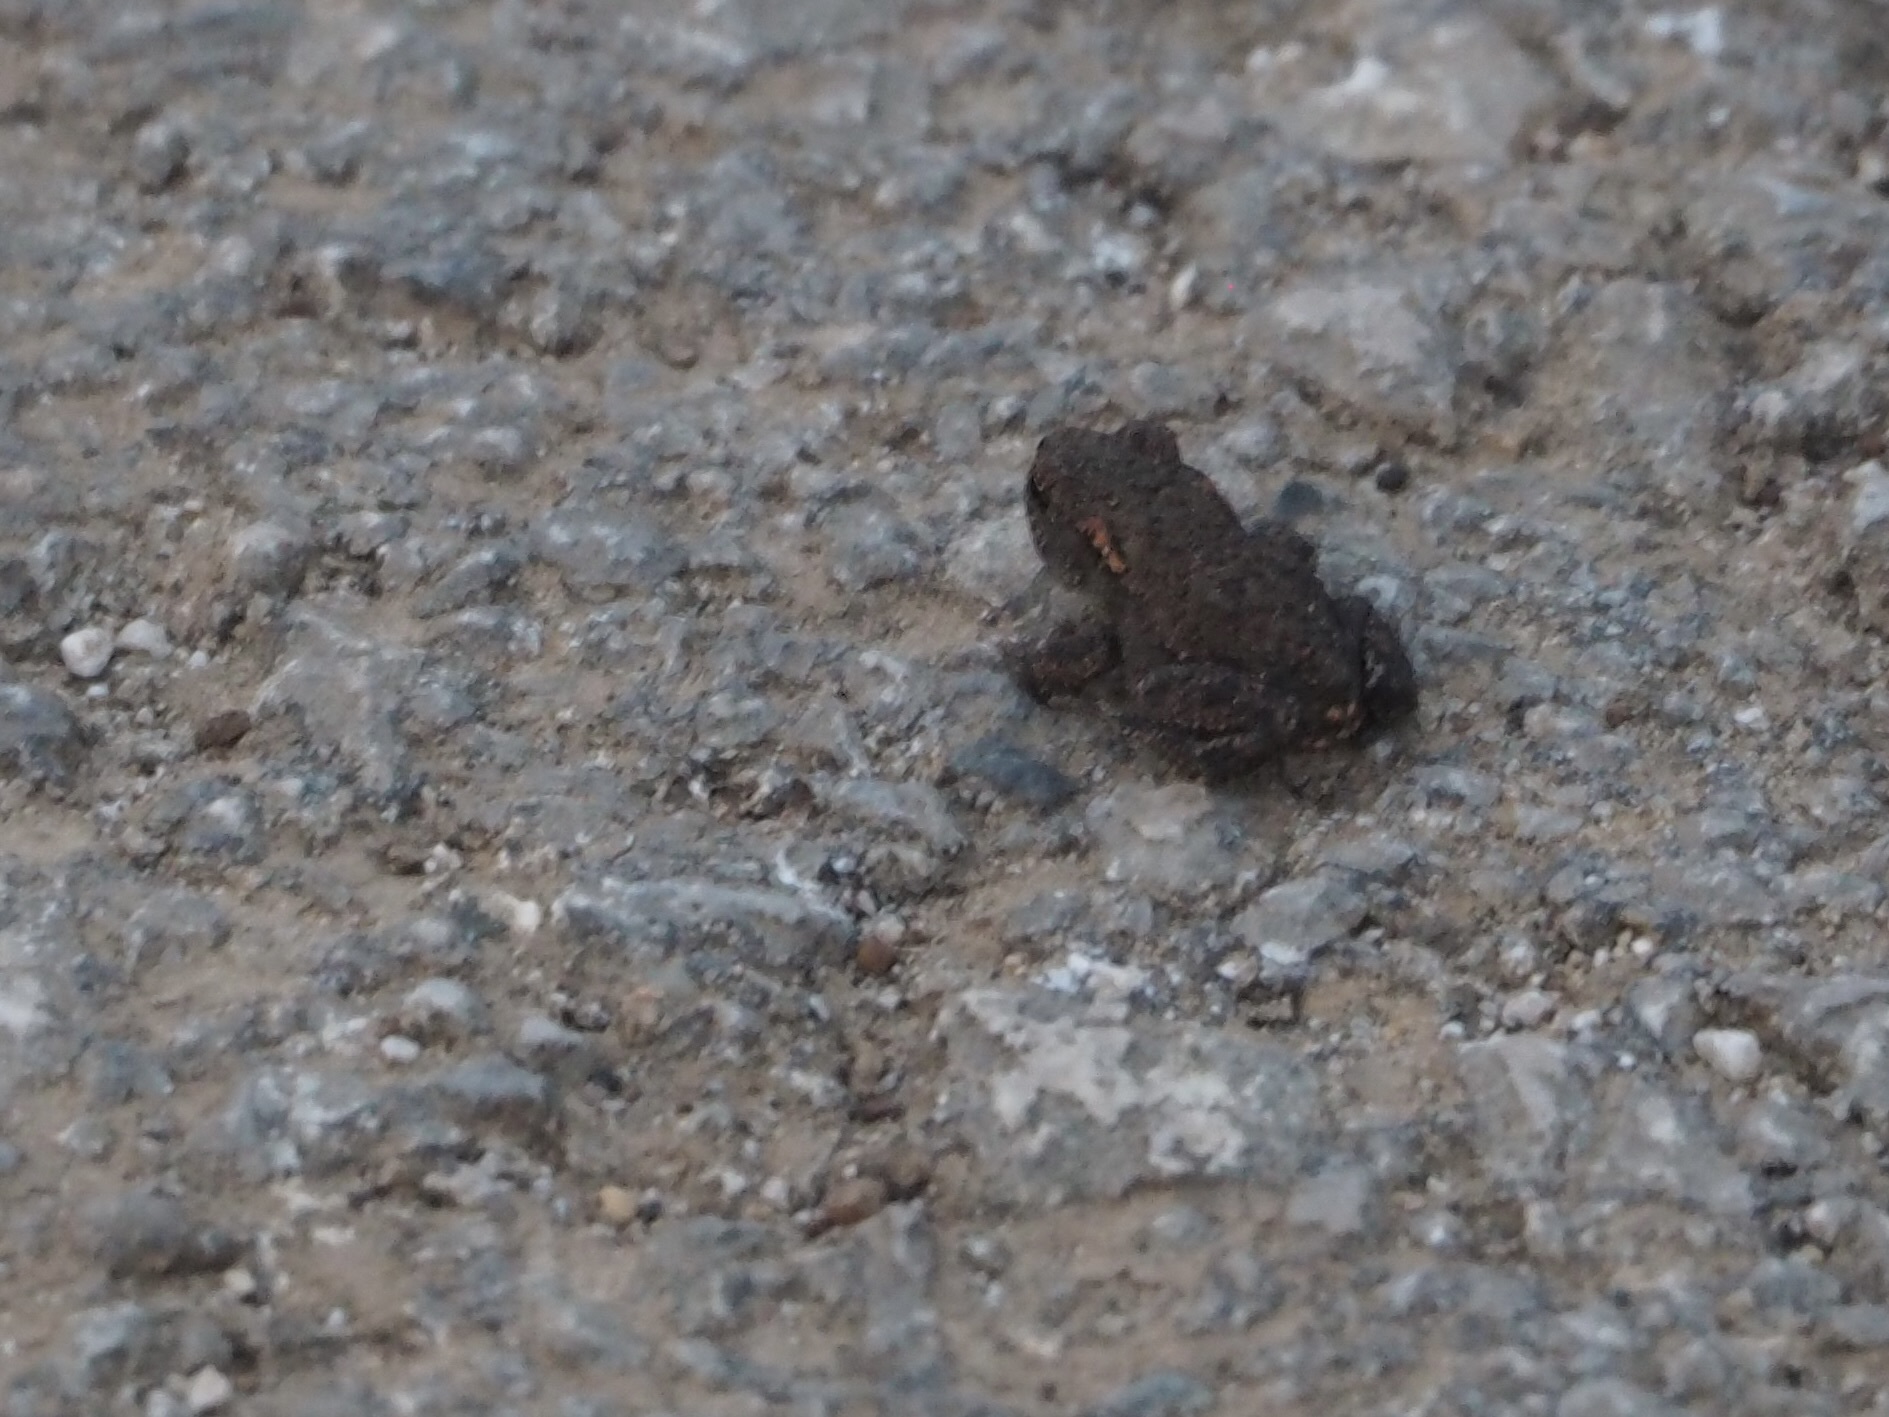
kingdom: Animalia
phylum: Chordata
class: Amphibia
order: Anura
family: Bufonidae
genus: Bufo
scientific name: Bufo spinosus
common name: Western common toad
